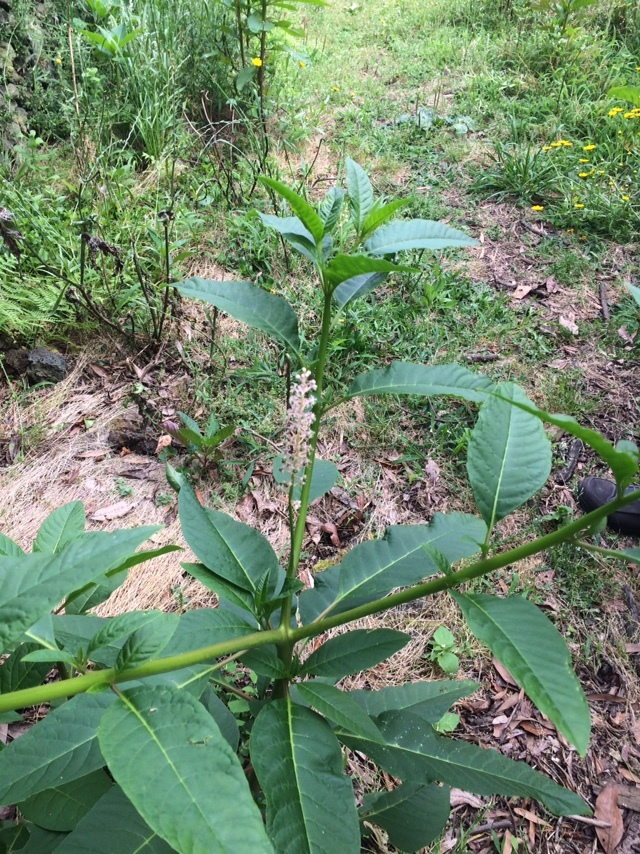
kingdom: Plantae
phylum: Tracheophyta
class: Magnoliopsida
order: Caryophyllales
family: Phytolaccaceae
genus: Phytolacca
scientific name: Phytolacca americana
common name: American pokeweed
